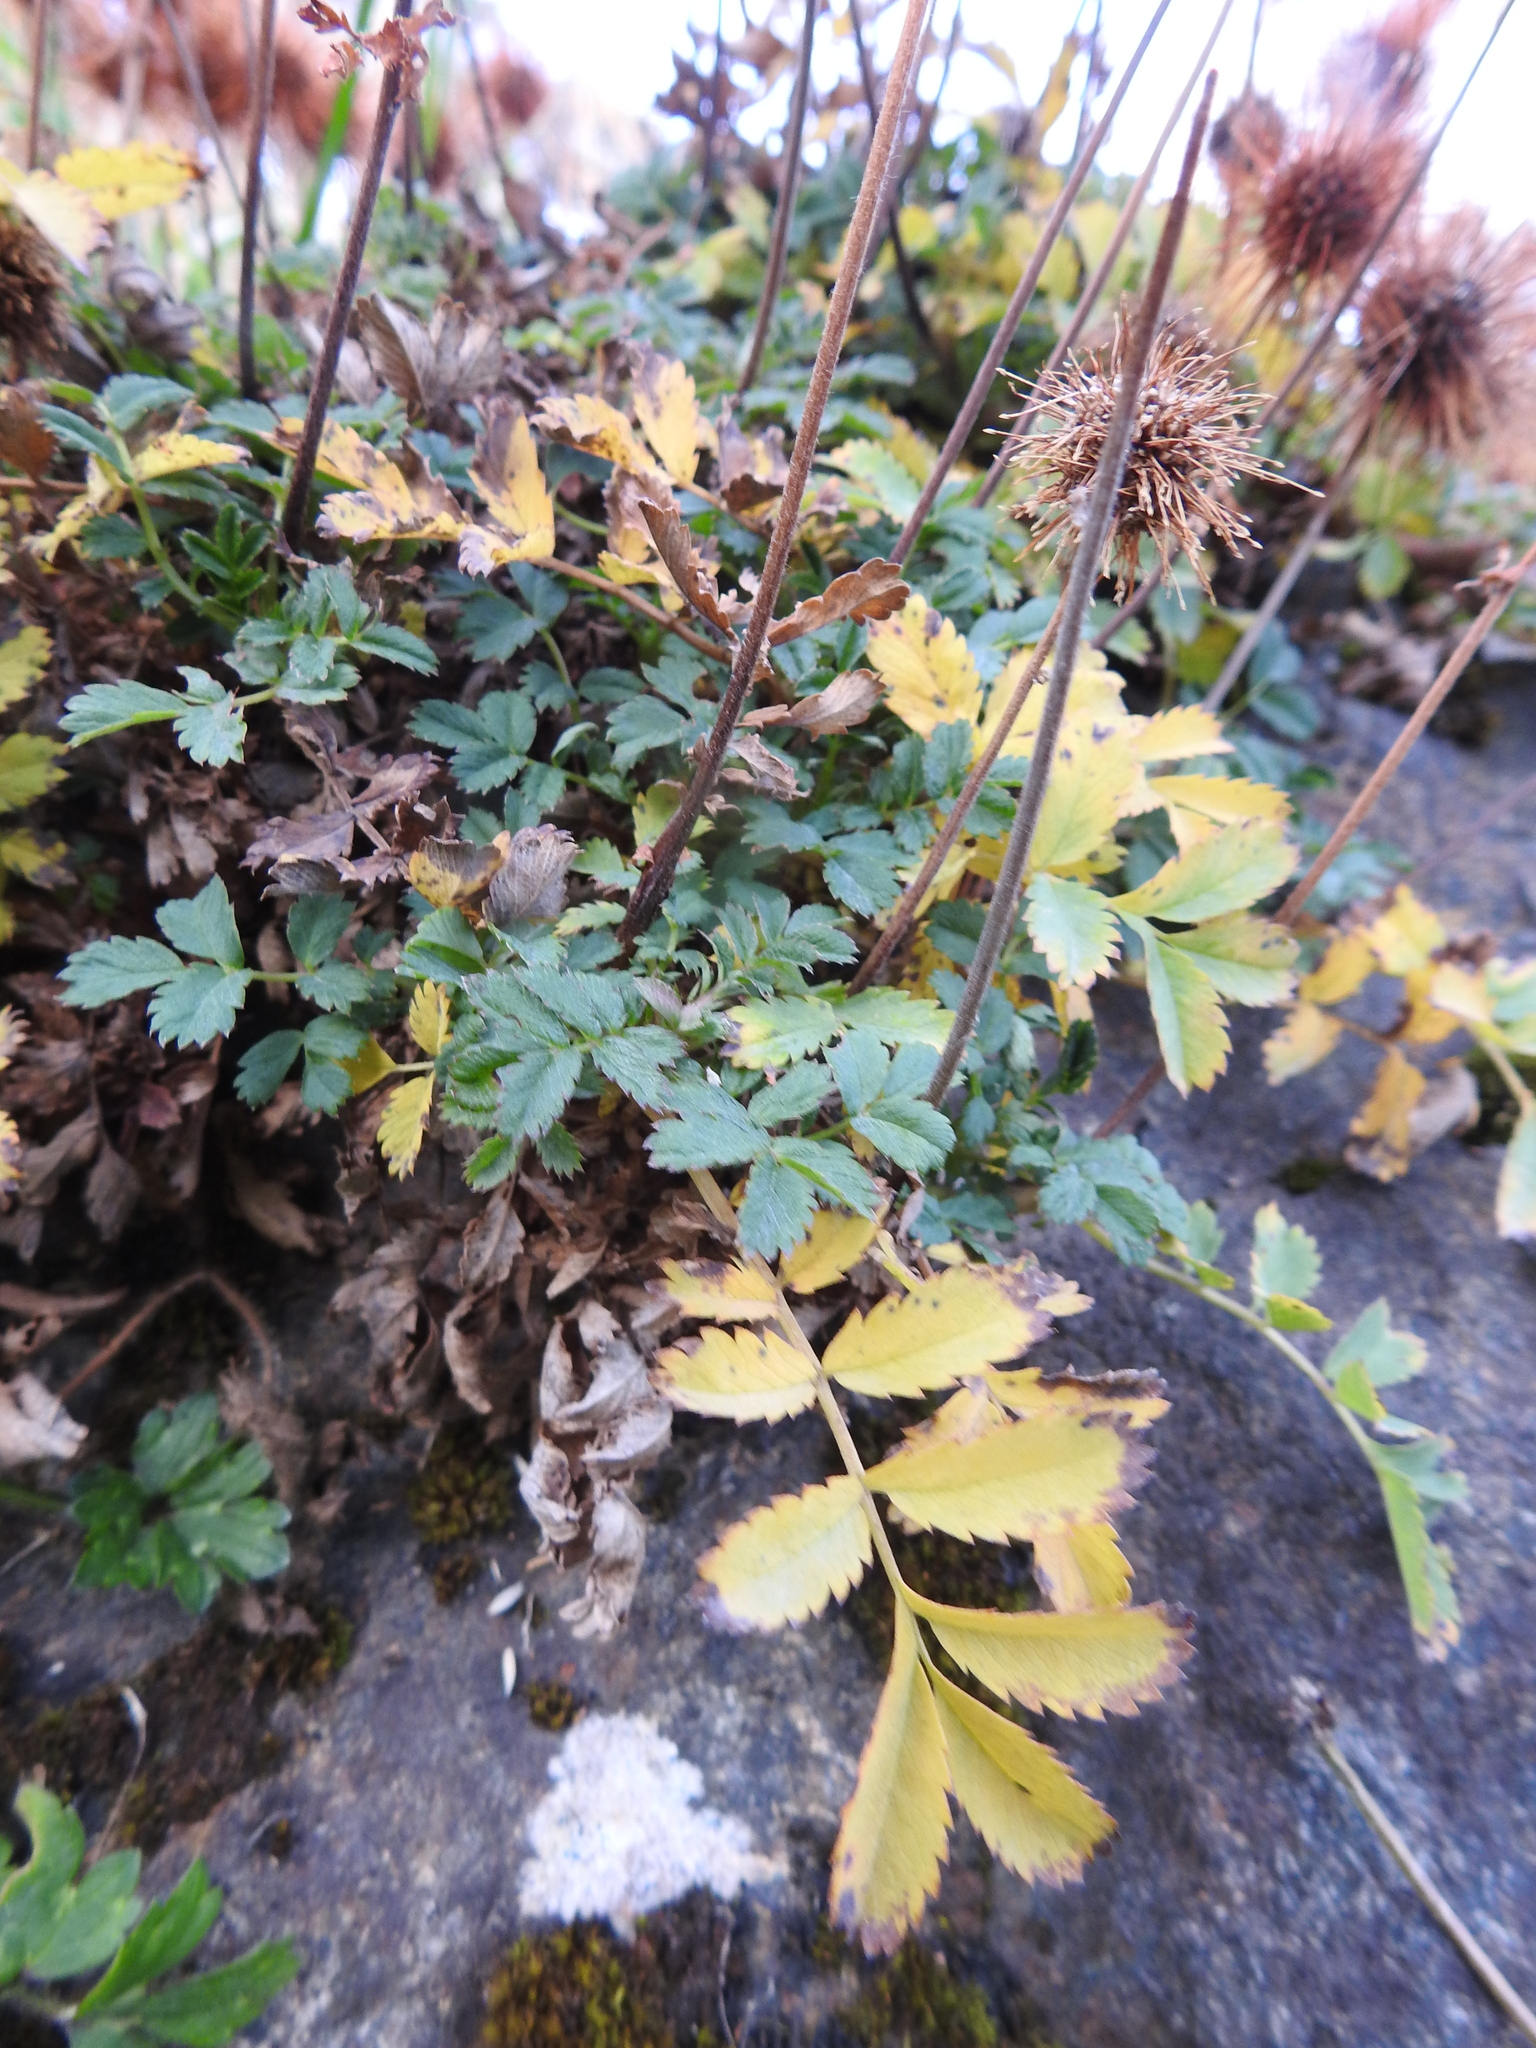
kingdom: Plantae
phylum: Tracheophyta
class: Magnoliopsida
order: Rosales
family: Rosaceae
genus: Acaena
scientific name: Acaena magellanica
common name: New zealand burr
